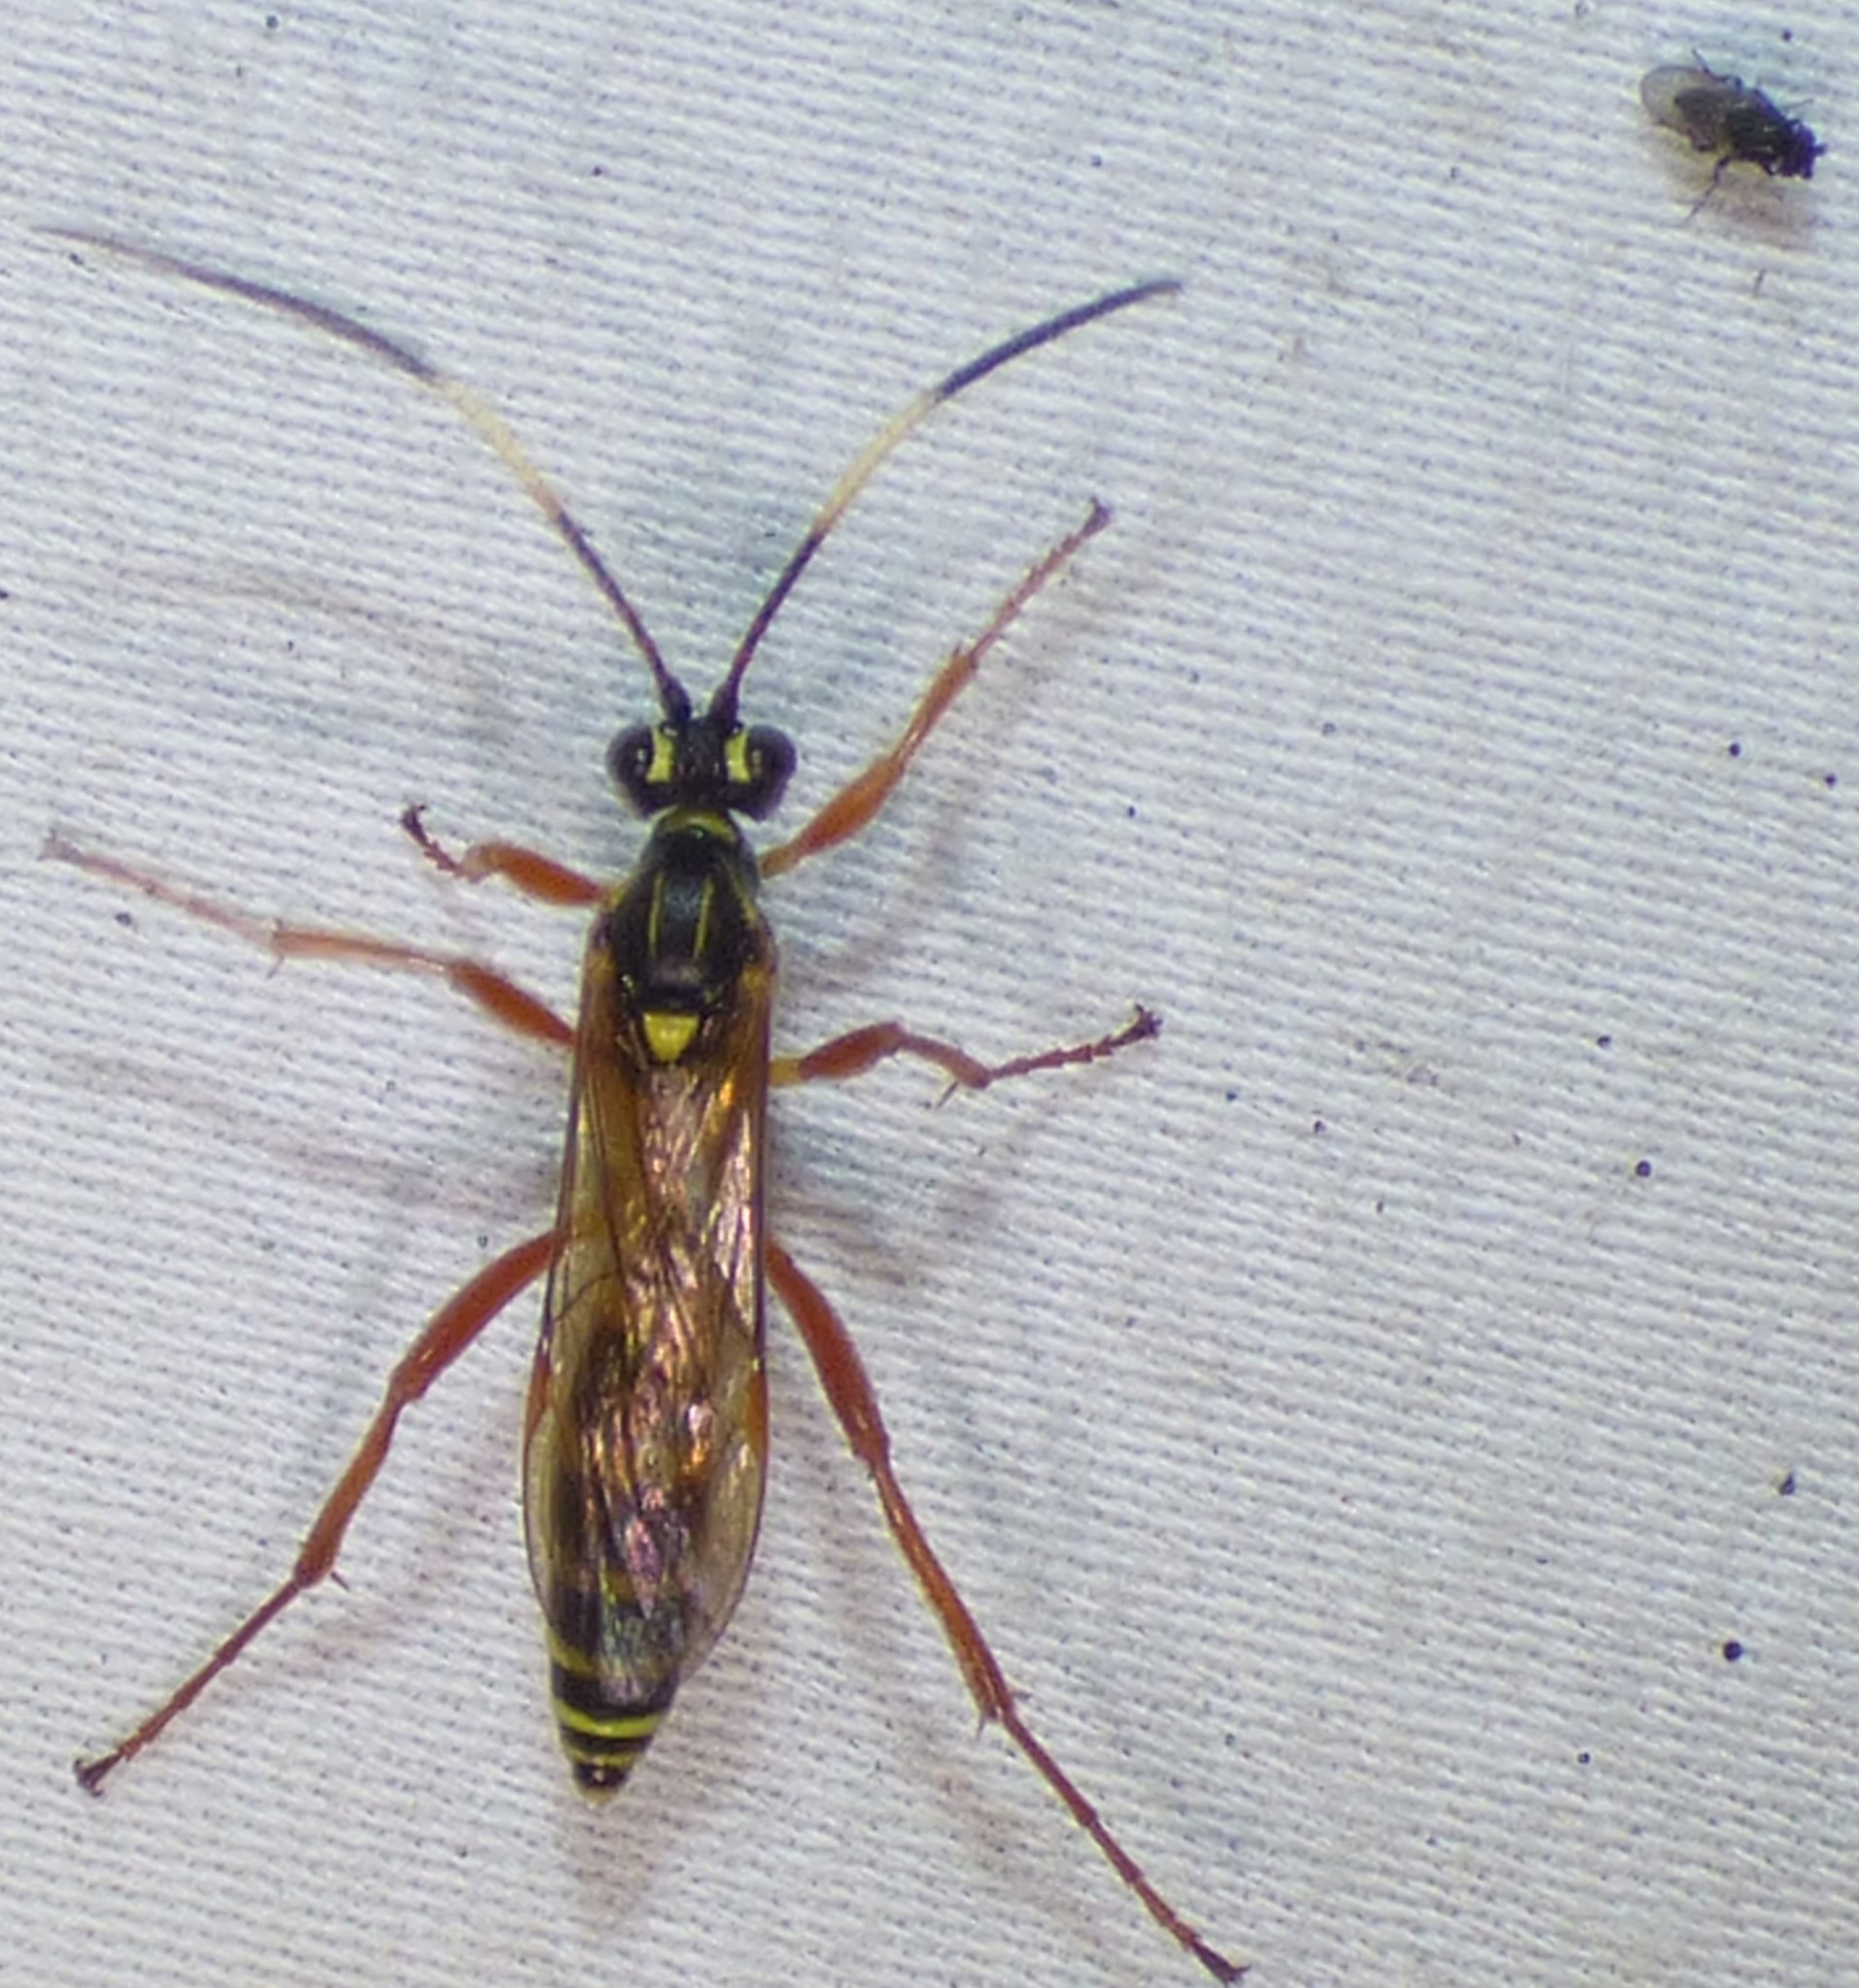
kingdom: Animalia
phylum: Arthropoda
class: Insecta
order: Hymenoptera
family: Ichneumonidae
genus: Setanta
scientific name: Setanta compta
